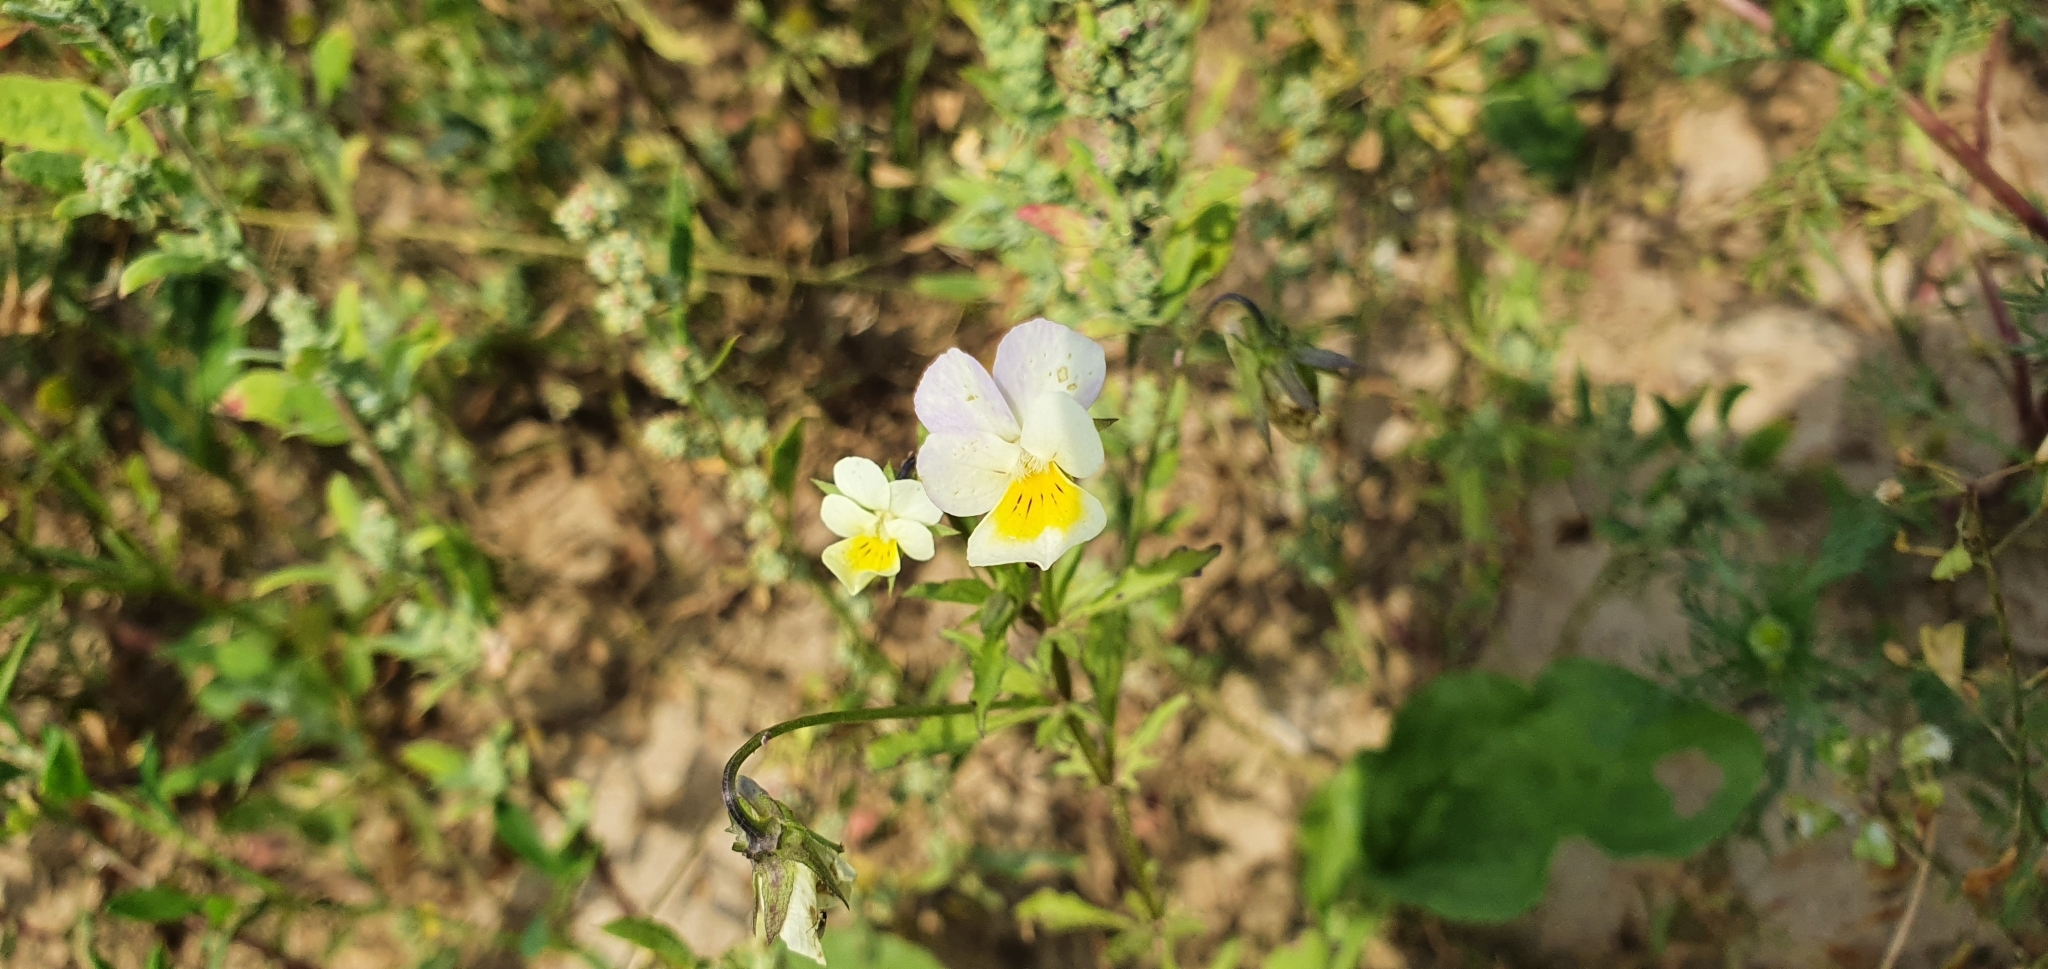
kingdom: Plantae
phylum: Tracheophyta
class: Magnoliopsida
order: Malpighiales
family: Violaceae
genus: Viola
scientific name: Viola contempta
